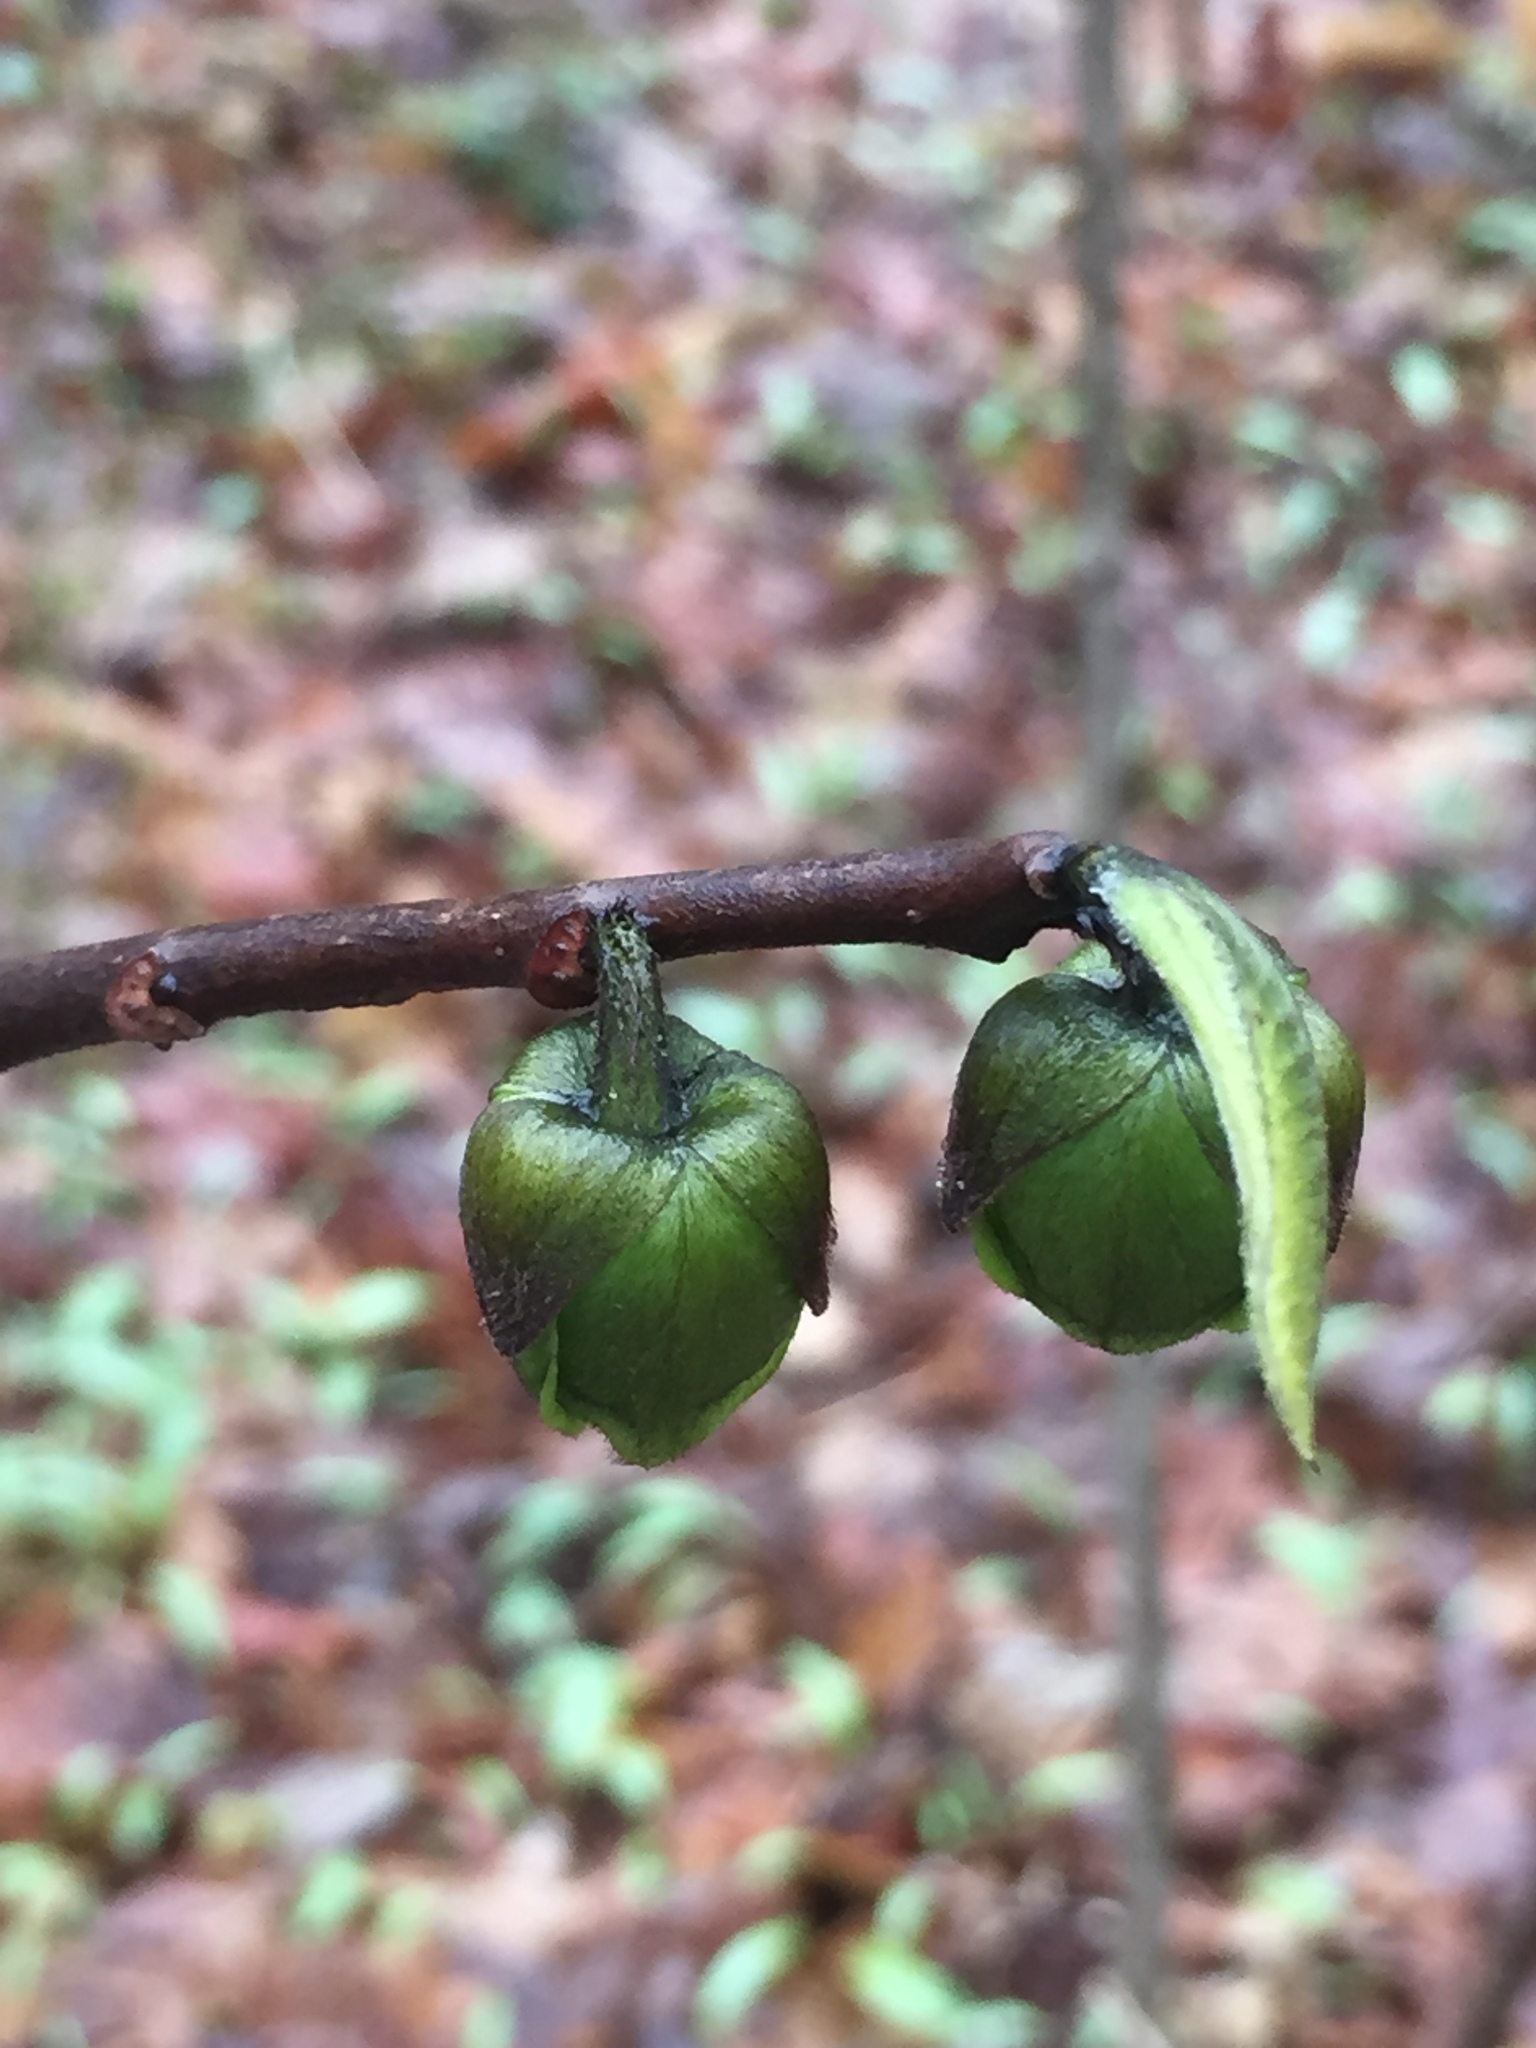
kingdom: Plantae
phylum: Tracheophyta
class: Magnoliopsida
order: Magnoliales
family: Annonaceae
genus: Asimina
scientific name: Asimina triloba
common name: Dog-banana
